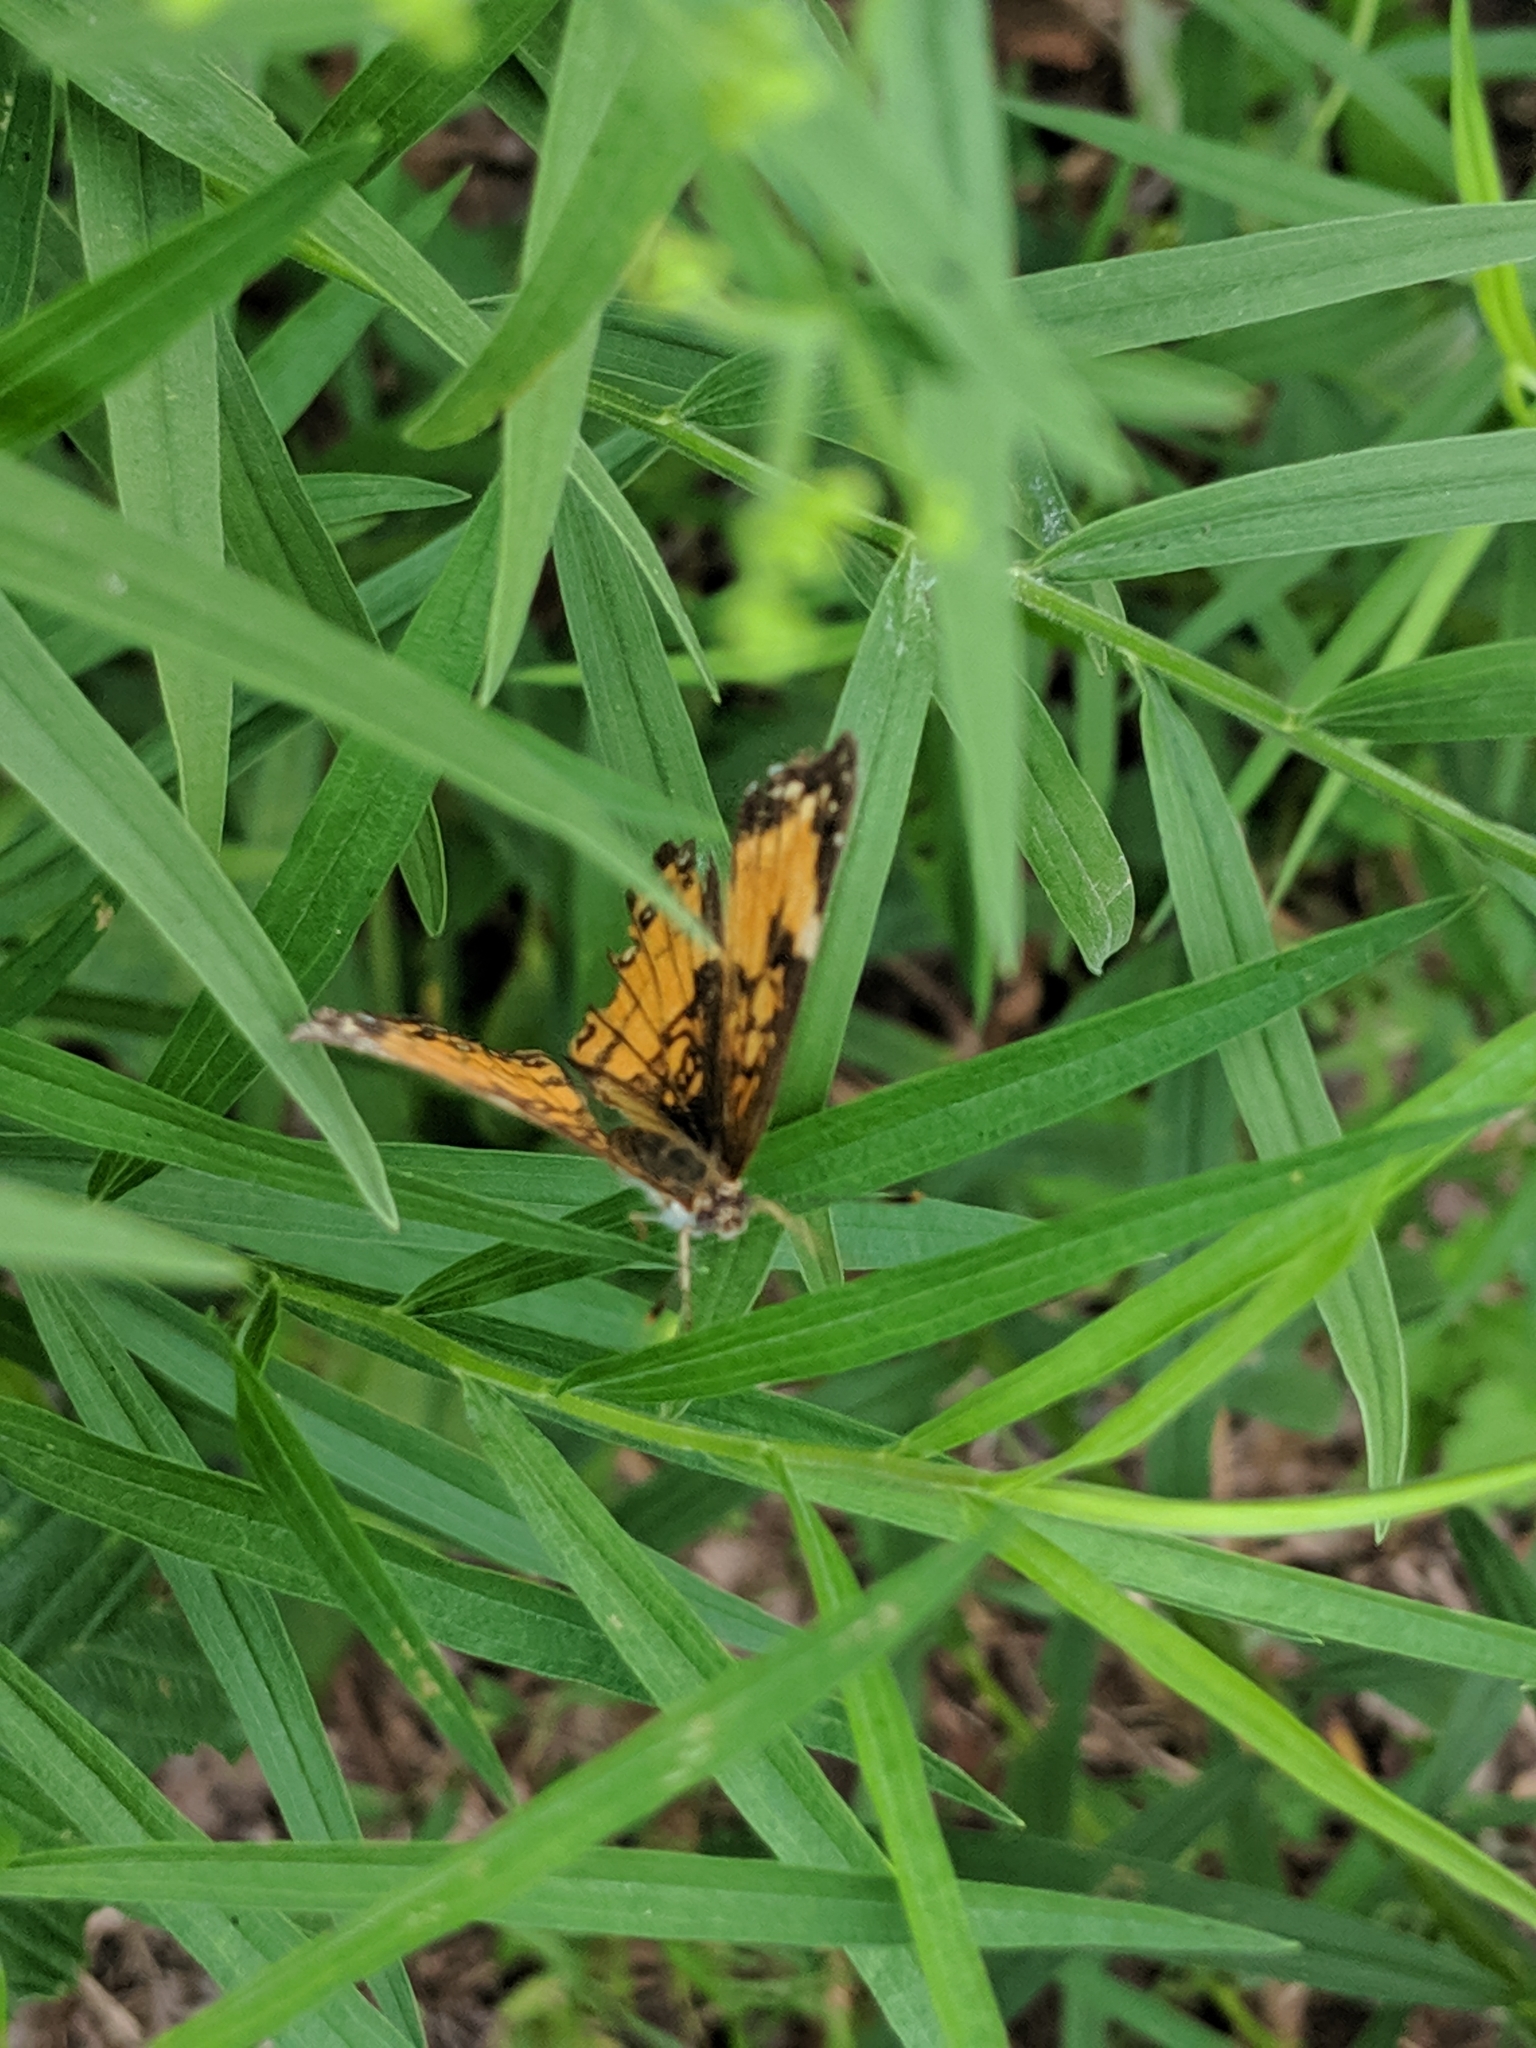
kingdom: Animalia
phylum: Arthropoda
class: Insecta
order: Lepidoptera
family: Nymphalidae
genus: Chlosyne
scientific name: Chlosyne nycteis
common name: Silvery checkerspot
